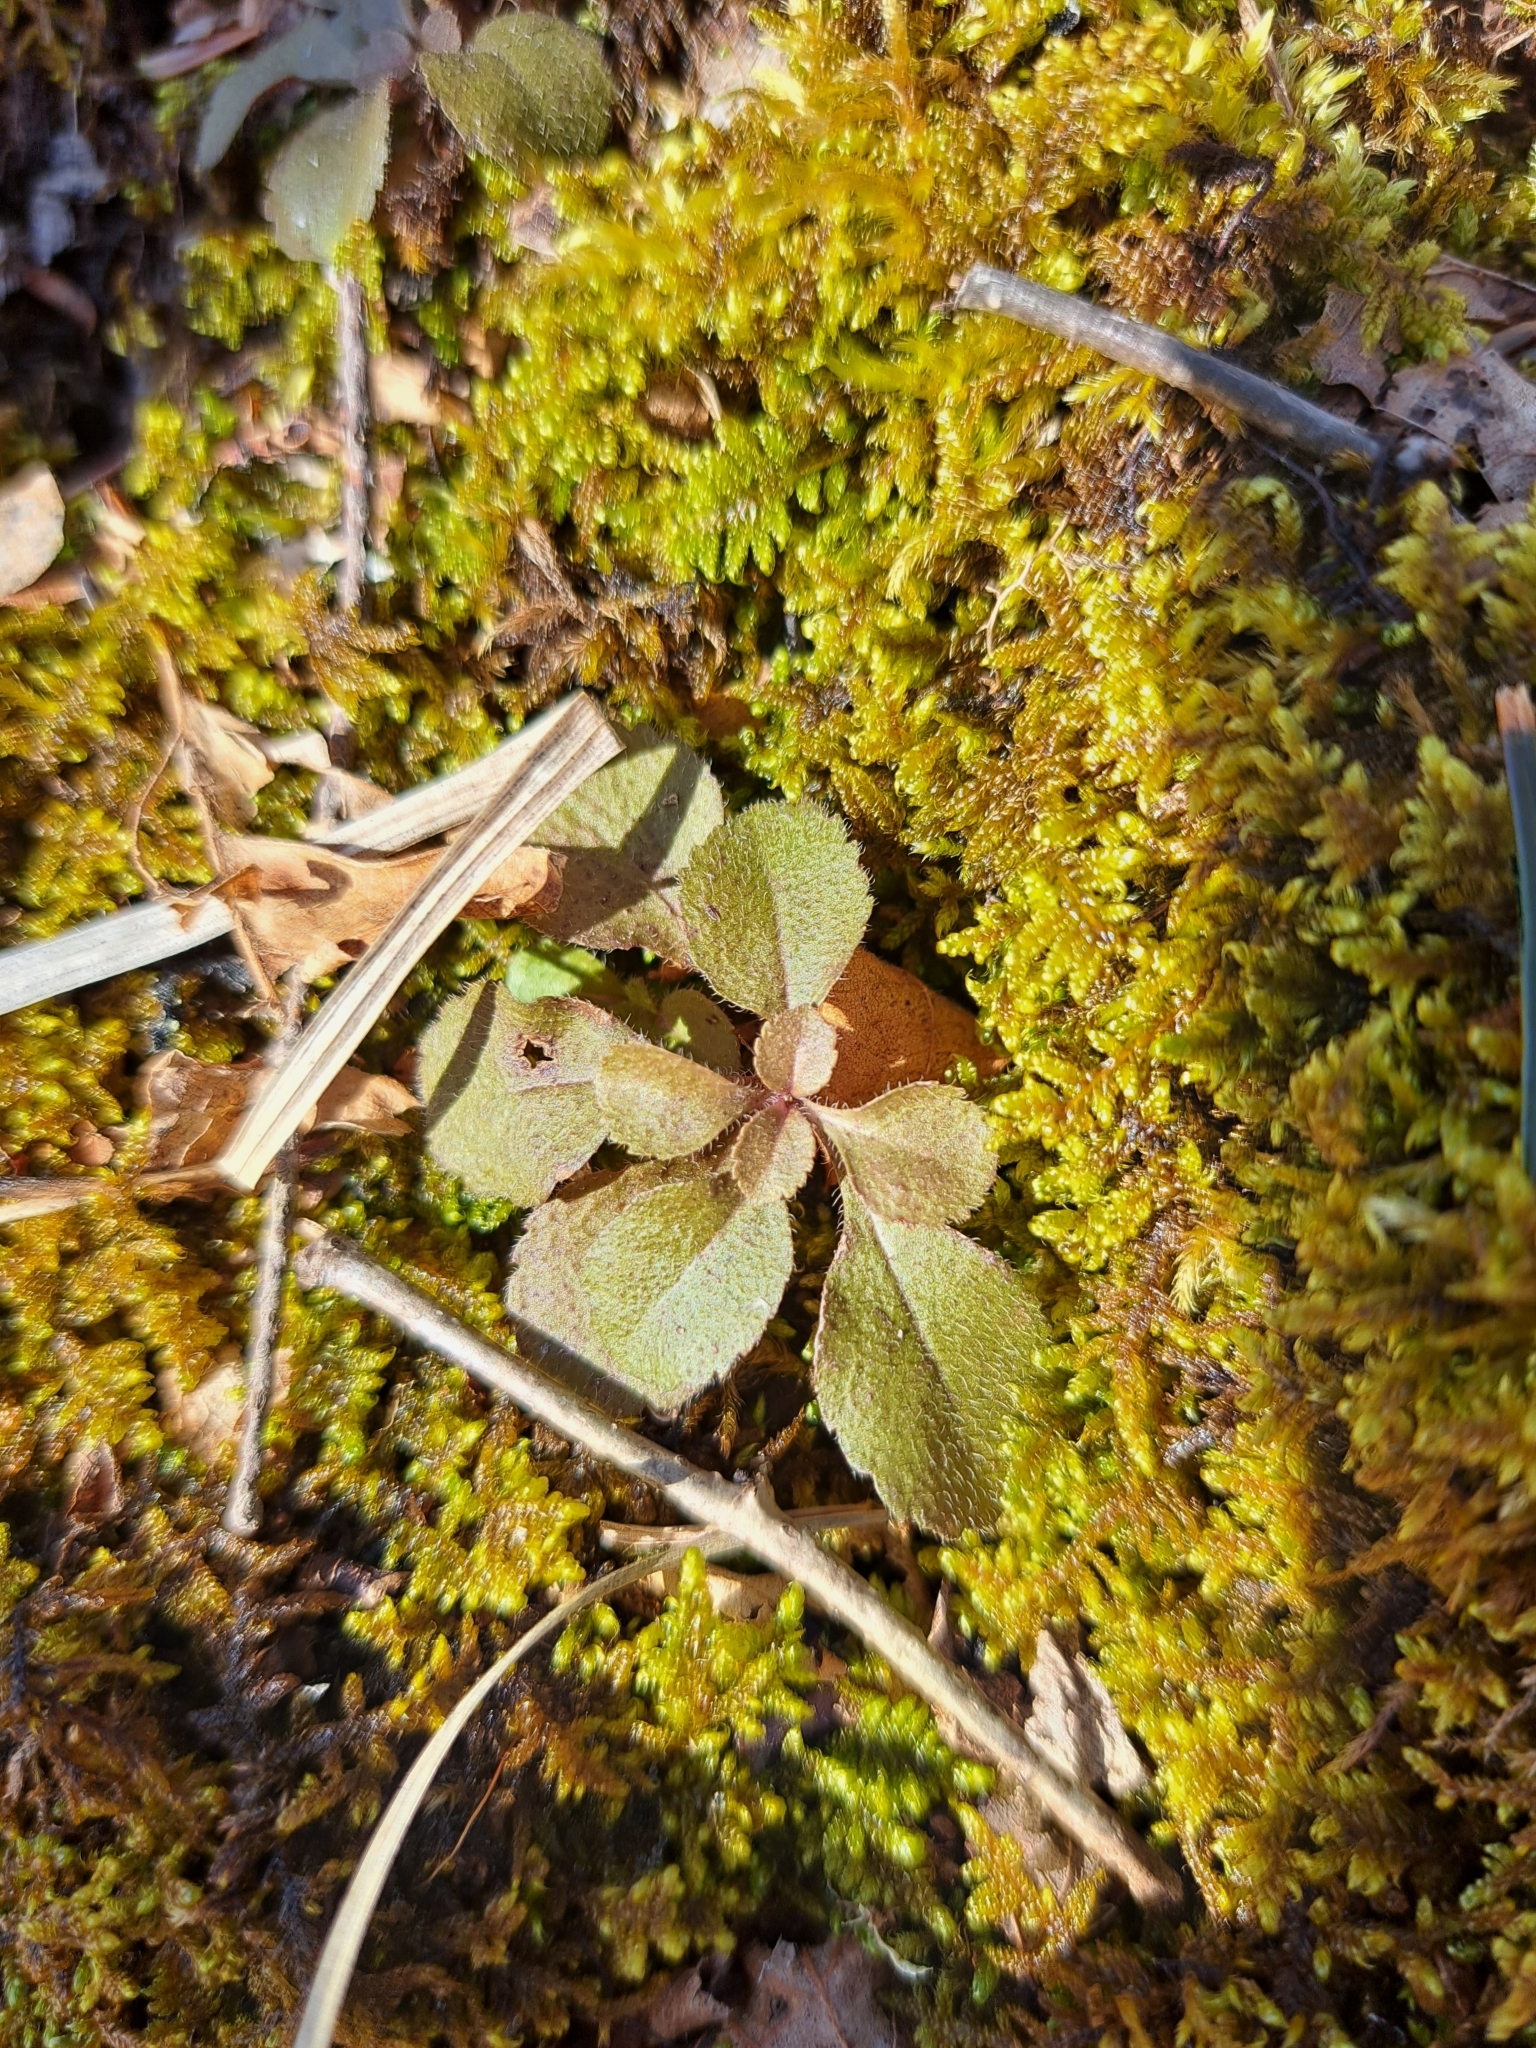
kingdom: Plantae
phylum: Tracheophyta
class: Magnoliopsida
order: Lamiales
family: Plantaginaceae
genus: Veronica
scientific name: Veronica officinalis
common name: Common speedwell
